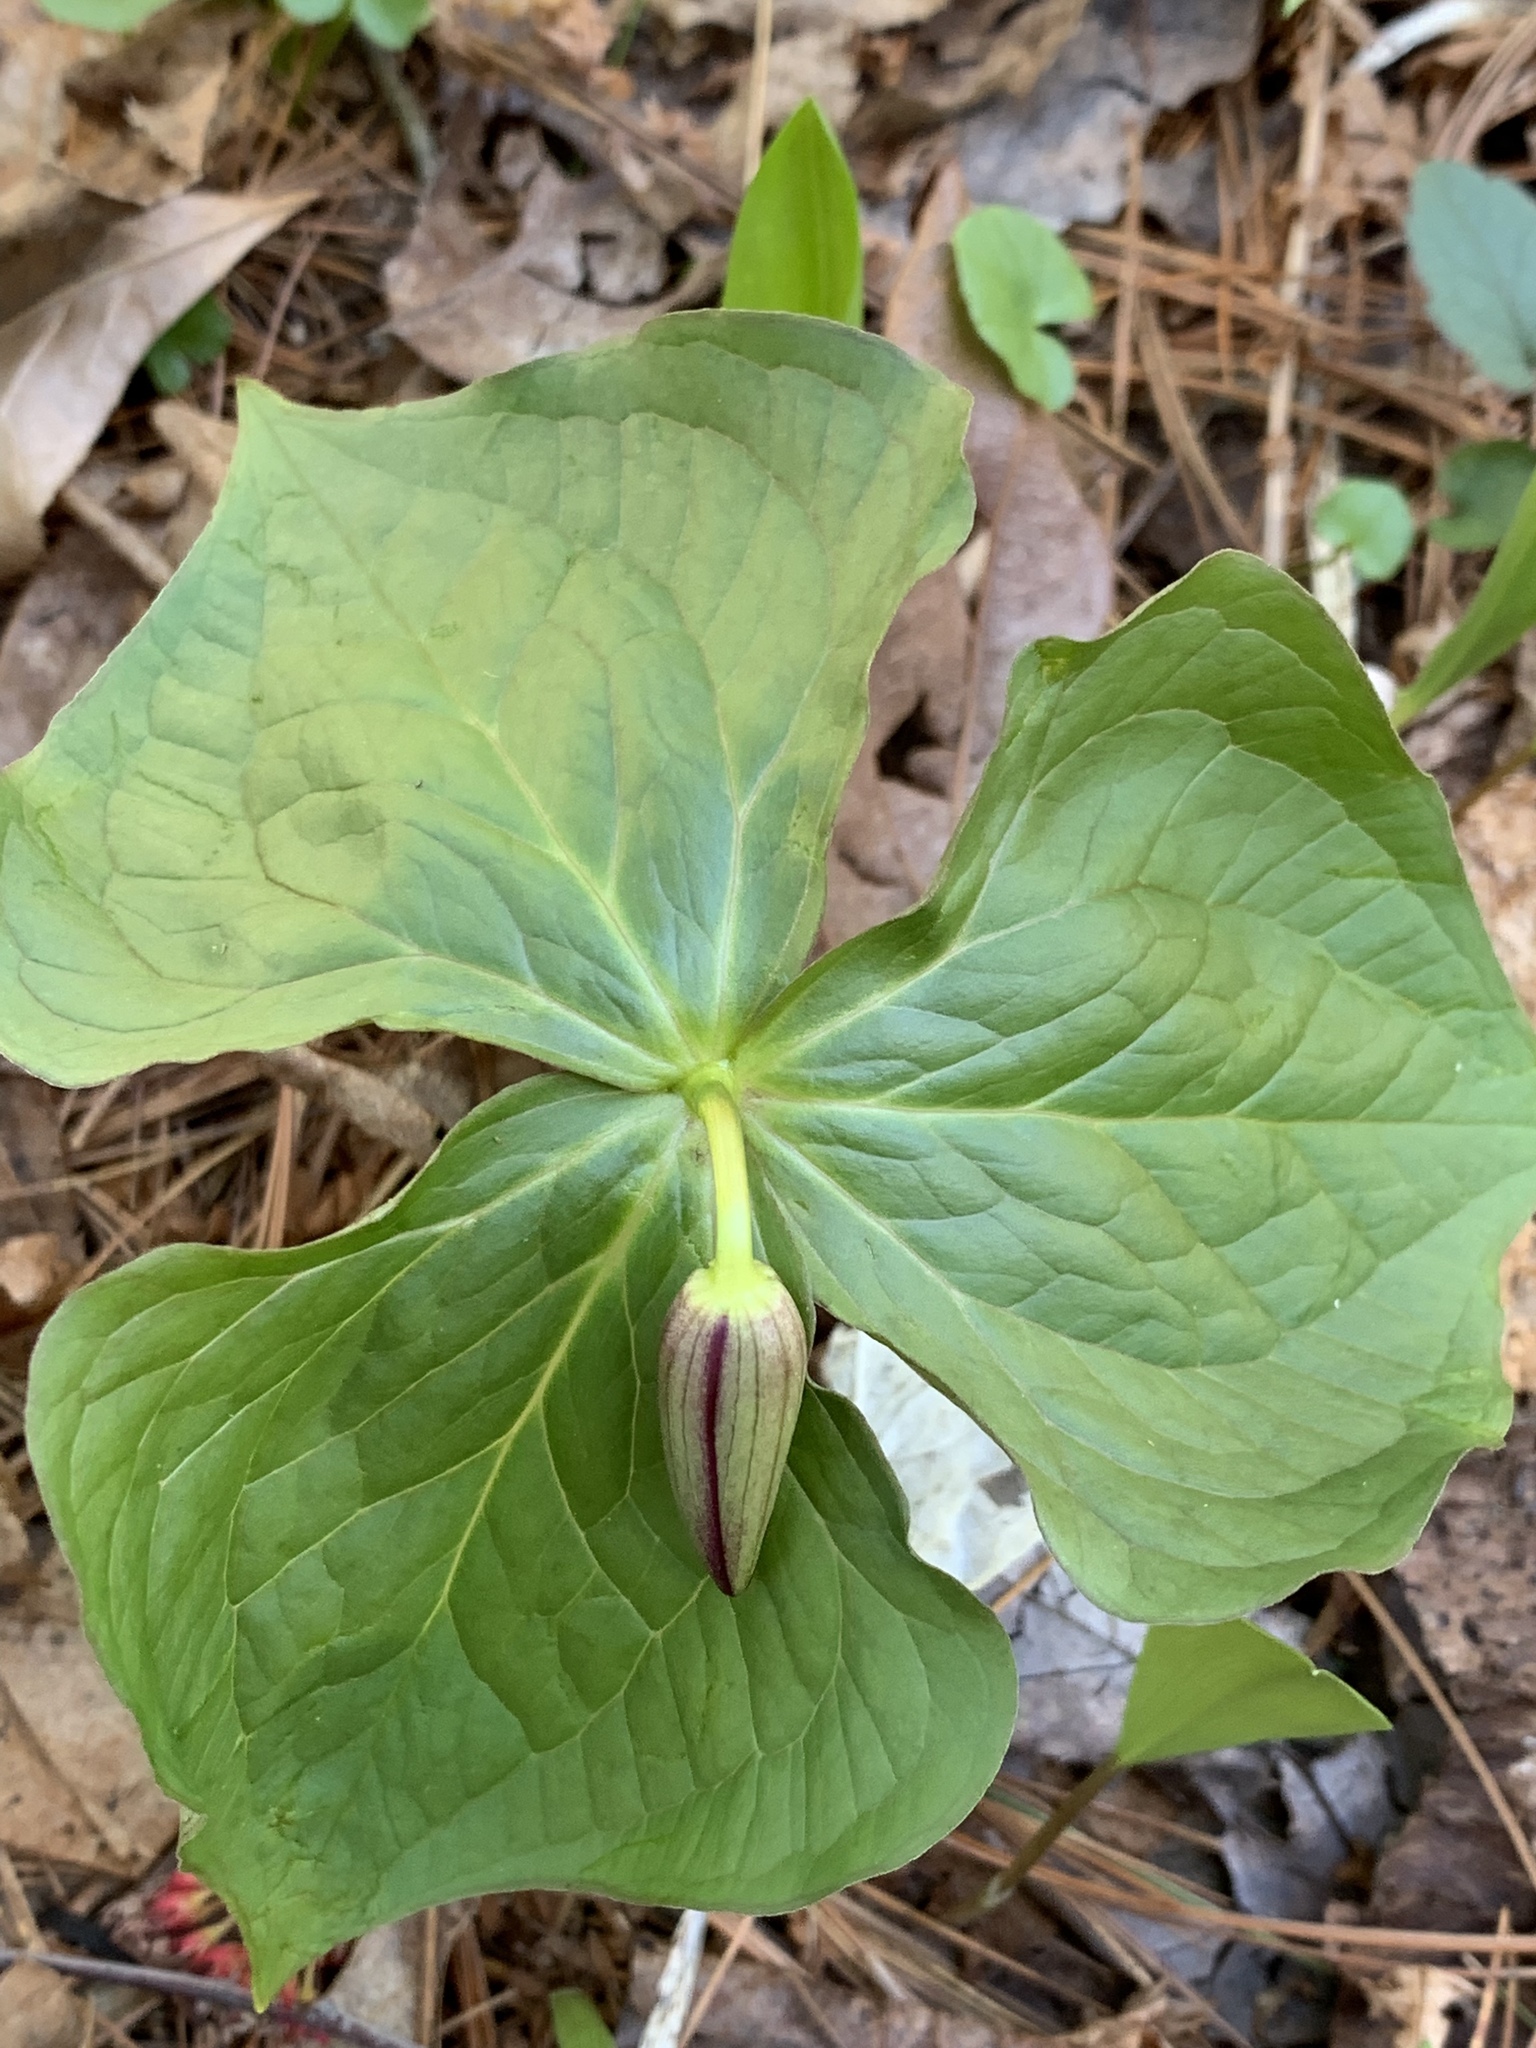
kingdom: Plantae
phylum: Tracheophyta
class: Liliopsida
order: Liliales
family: Melanthiaceae
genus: Trillium
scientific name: Trillium erectum
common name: Purple trillium
